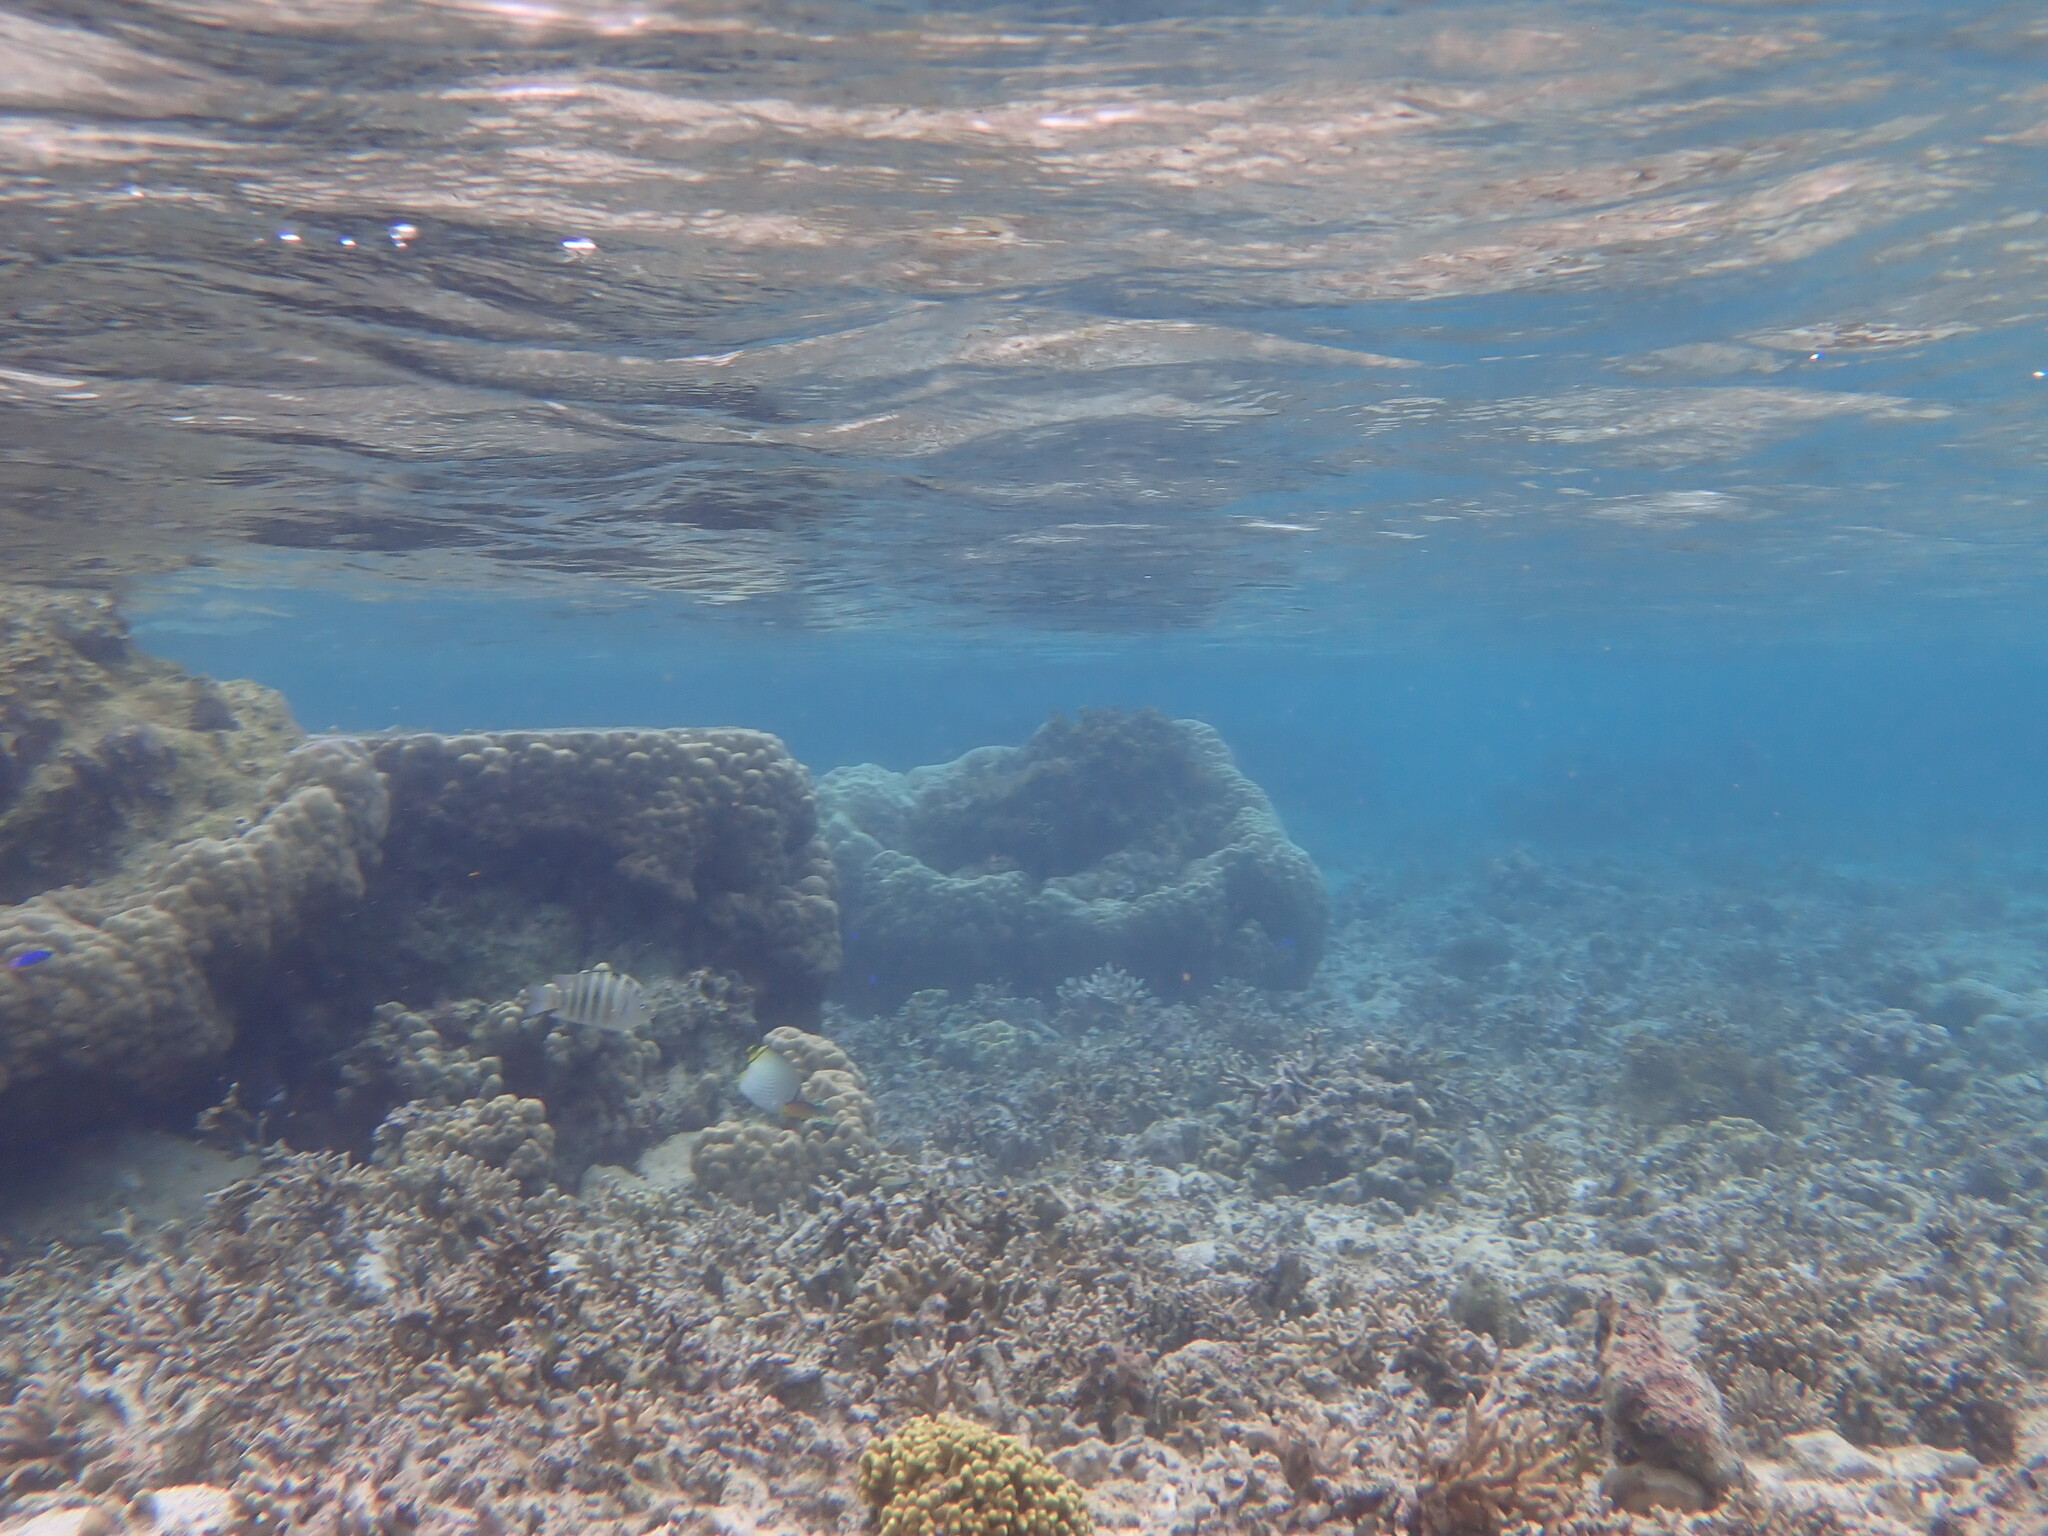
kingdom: Animalia
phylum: Chordata
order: Perciformes
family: Pomacentridae
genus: Abudefduf
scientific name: Abudefduf septemfasciatus
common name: Banded sergeant
